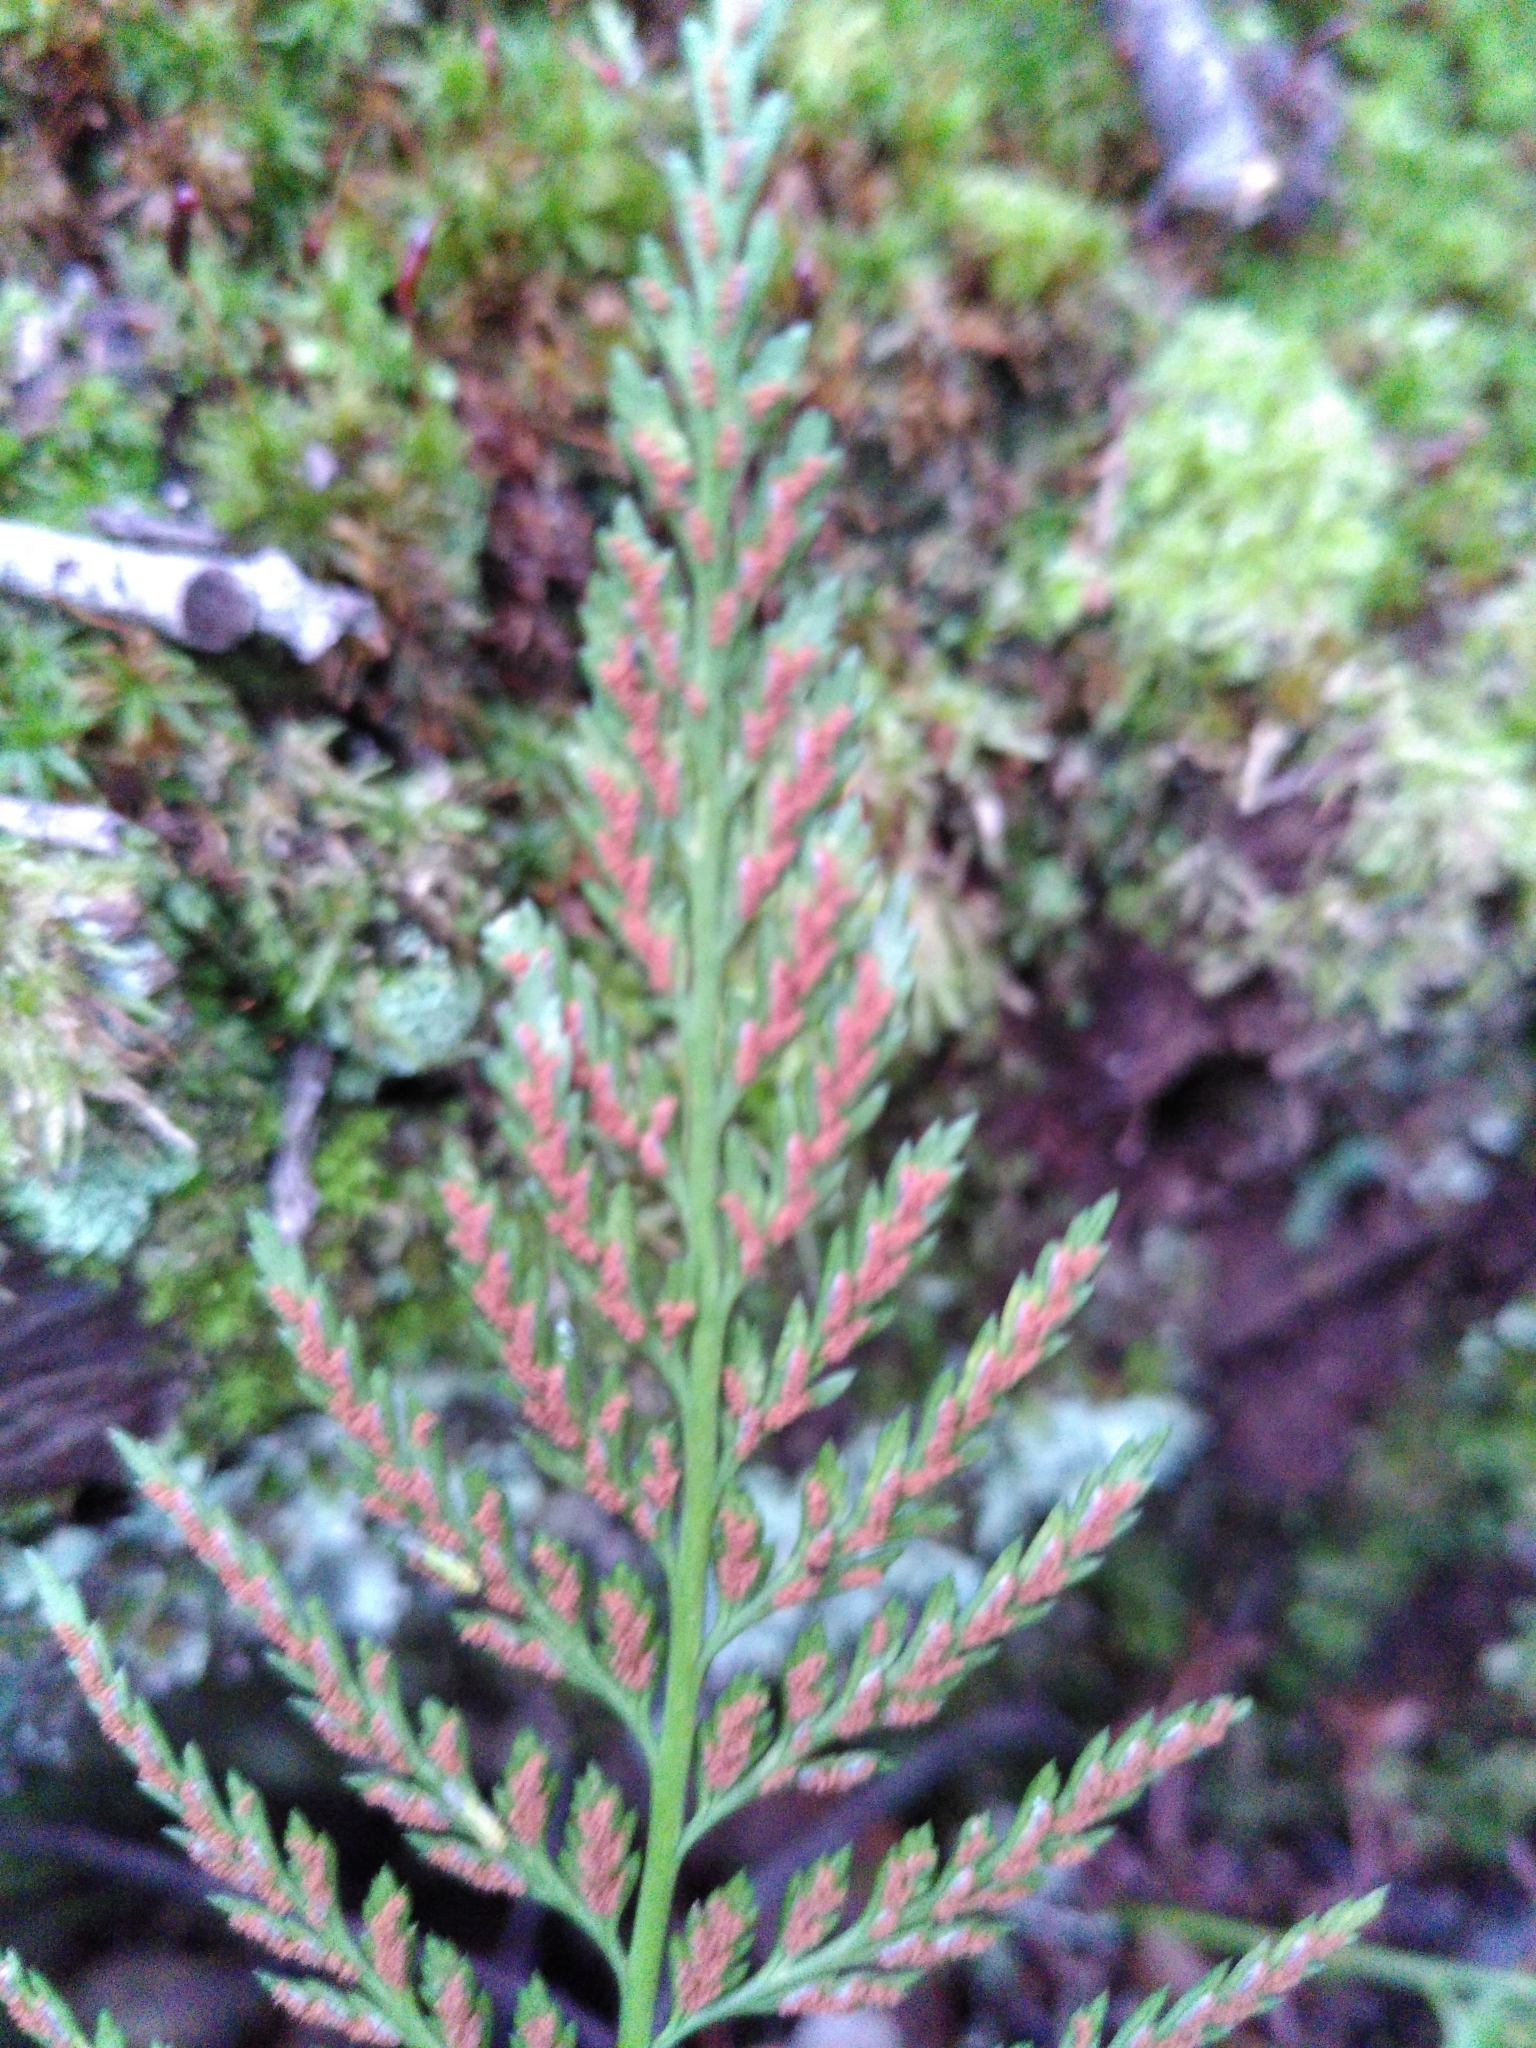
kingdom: Plantae
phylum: Tracheophyta
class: Polypodiopsida
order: Polypodiales
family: Aspleniaceae
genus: Asplenium
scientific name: Asplenium onopteris
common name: Irish spleenwort
